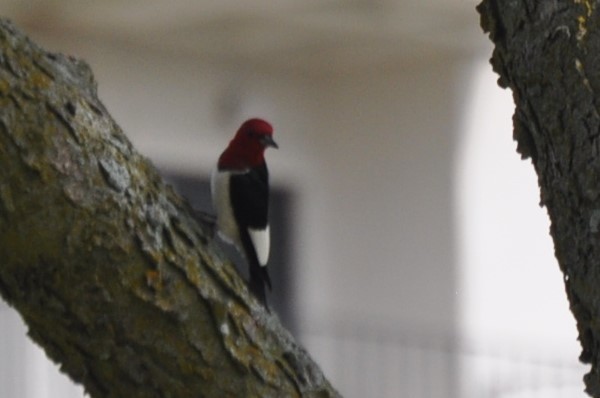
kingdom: Animalia
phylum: Chordata
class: Aves
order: Piciformes
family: Picidae
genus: Melanerpes
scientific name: Melanerpes erythrocephalus
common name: Red-headed woodpecker
